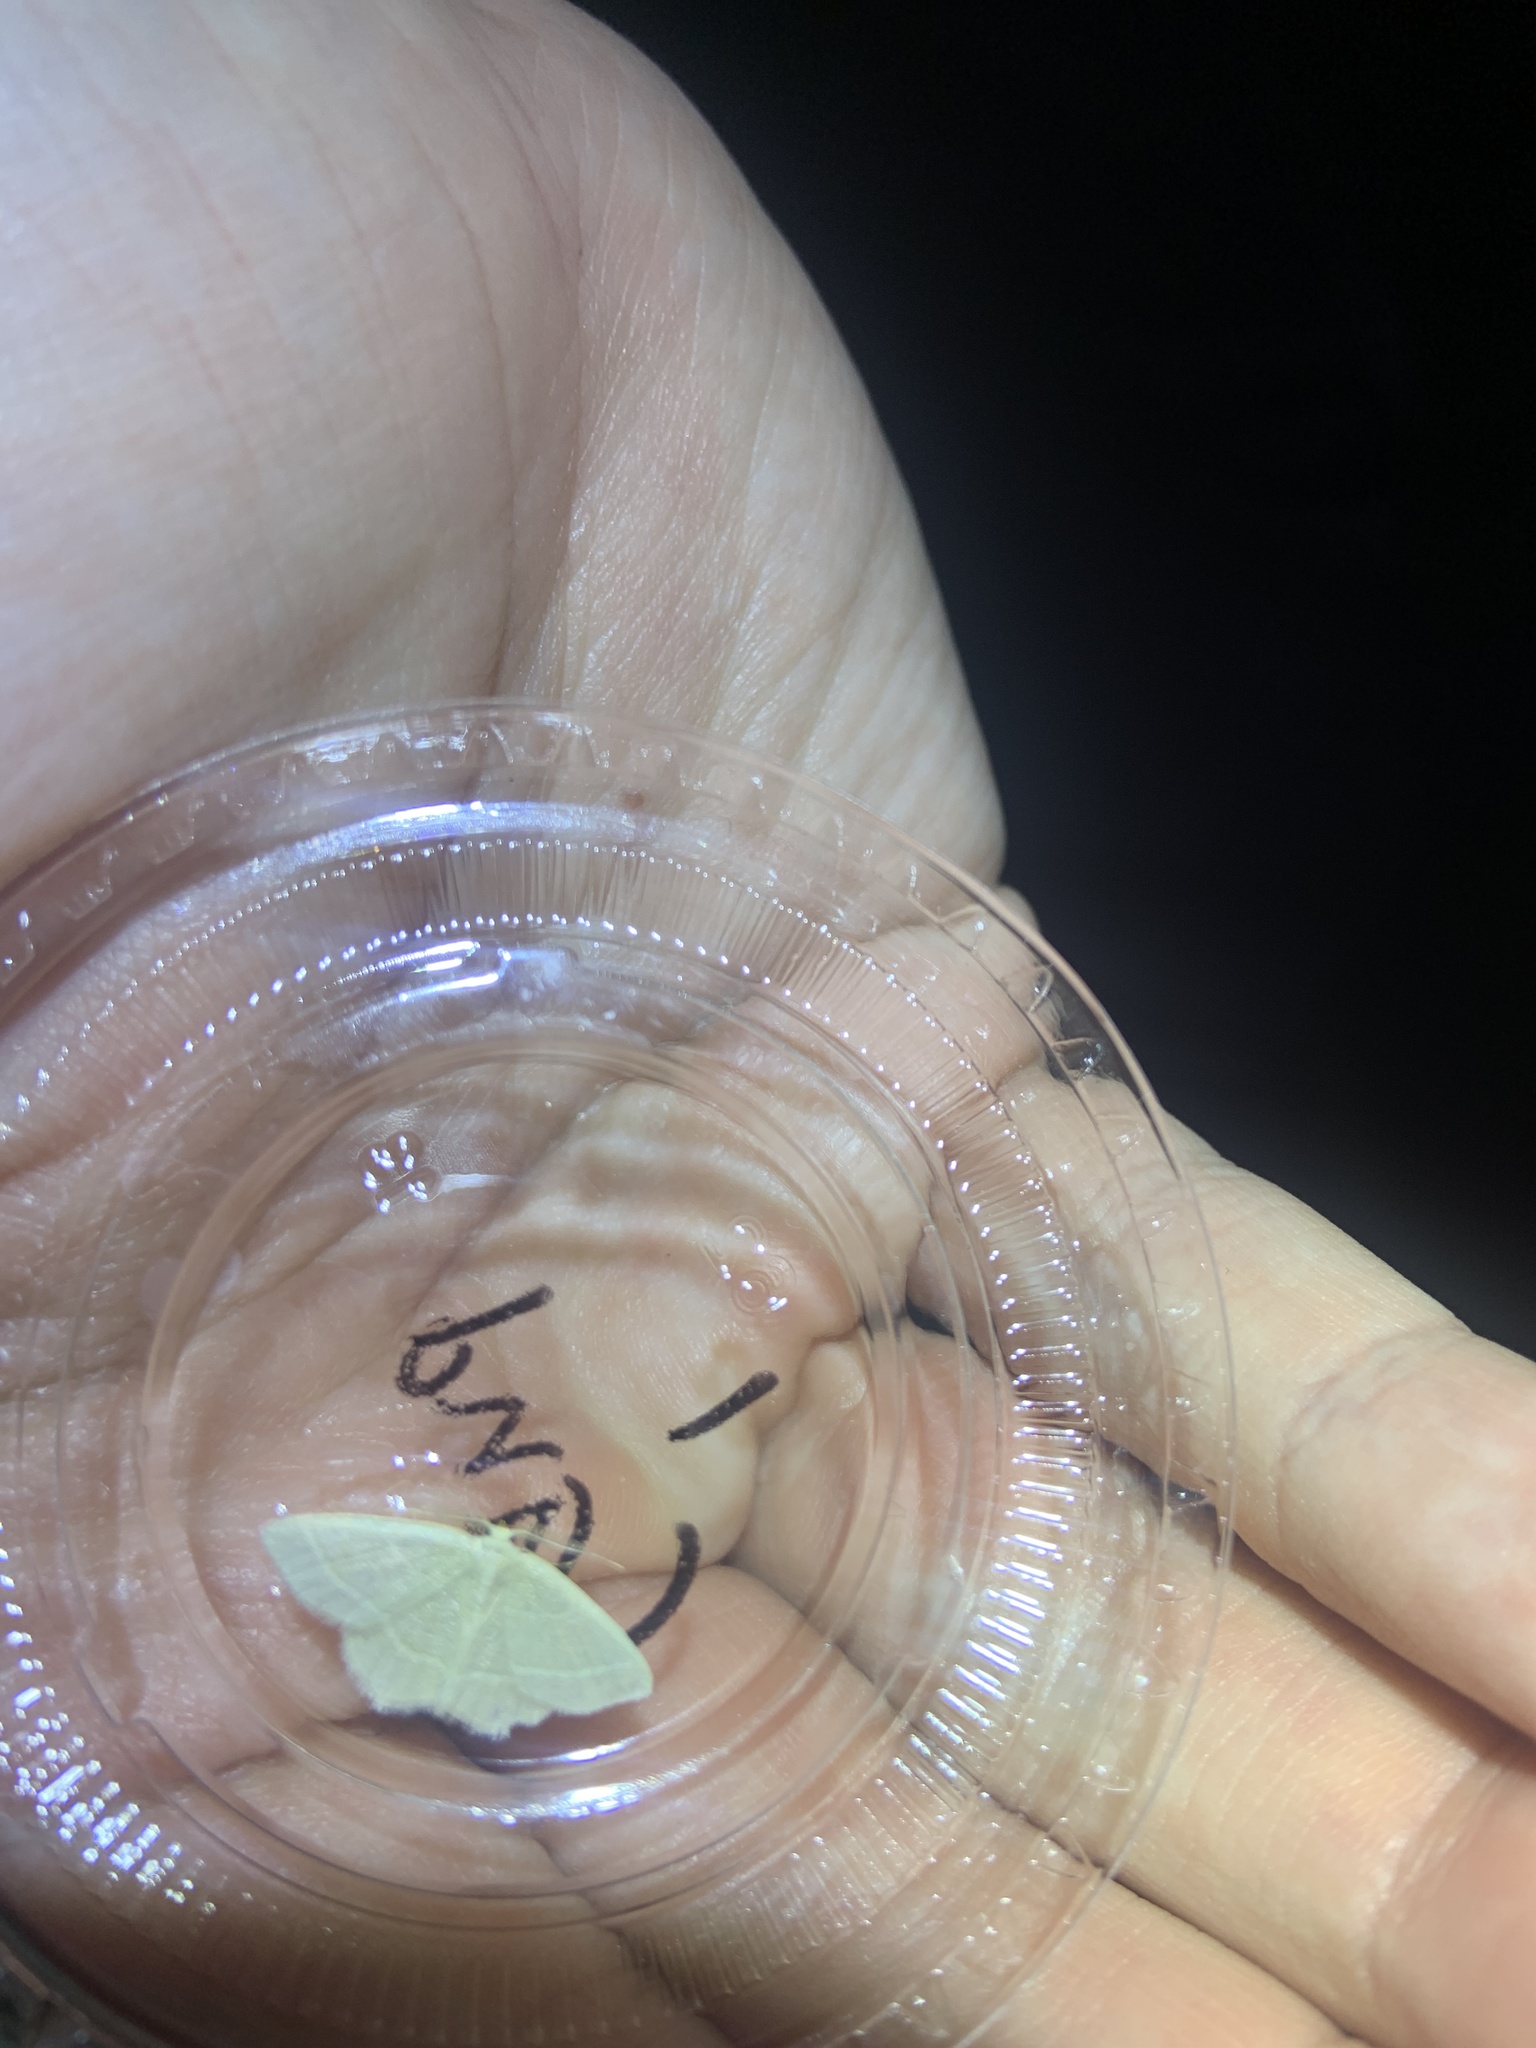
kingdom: Animalia
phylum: Arthropoda
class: Insecta
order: Lepidoptera
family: Geometridae
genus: Synchlora
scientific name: Synchlora aerata
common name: Wavy-lined emerald
